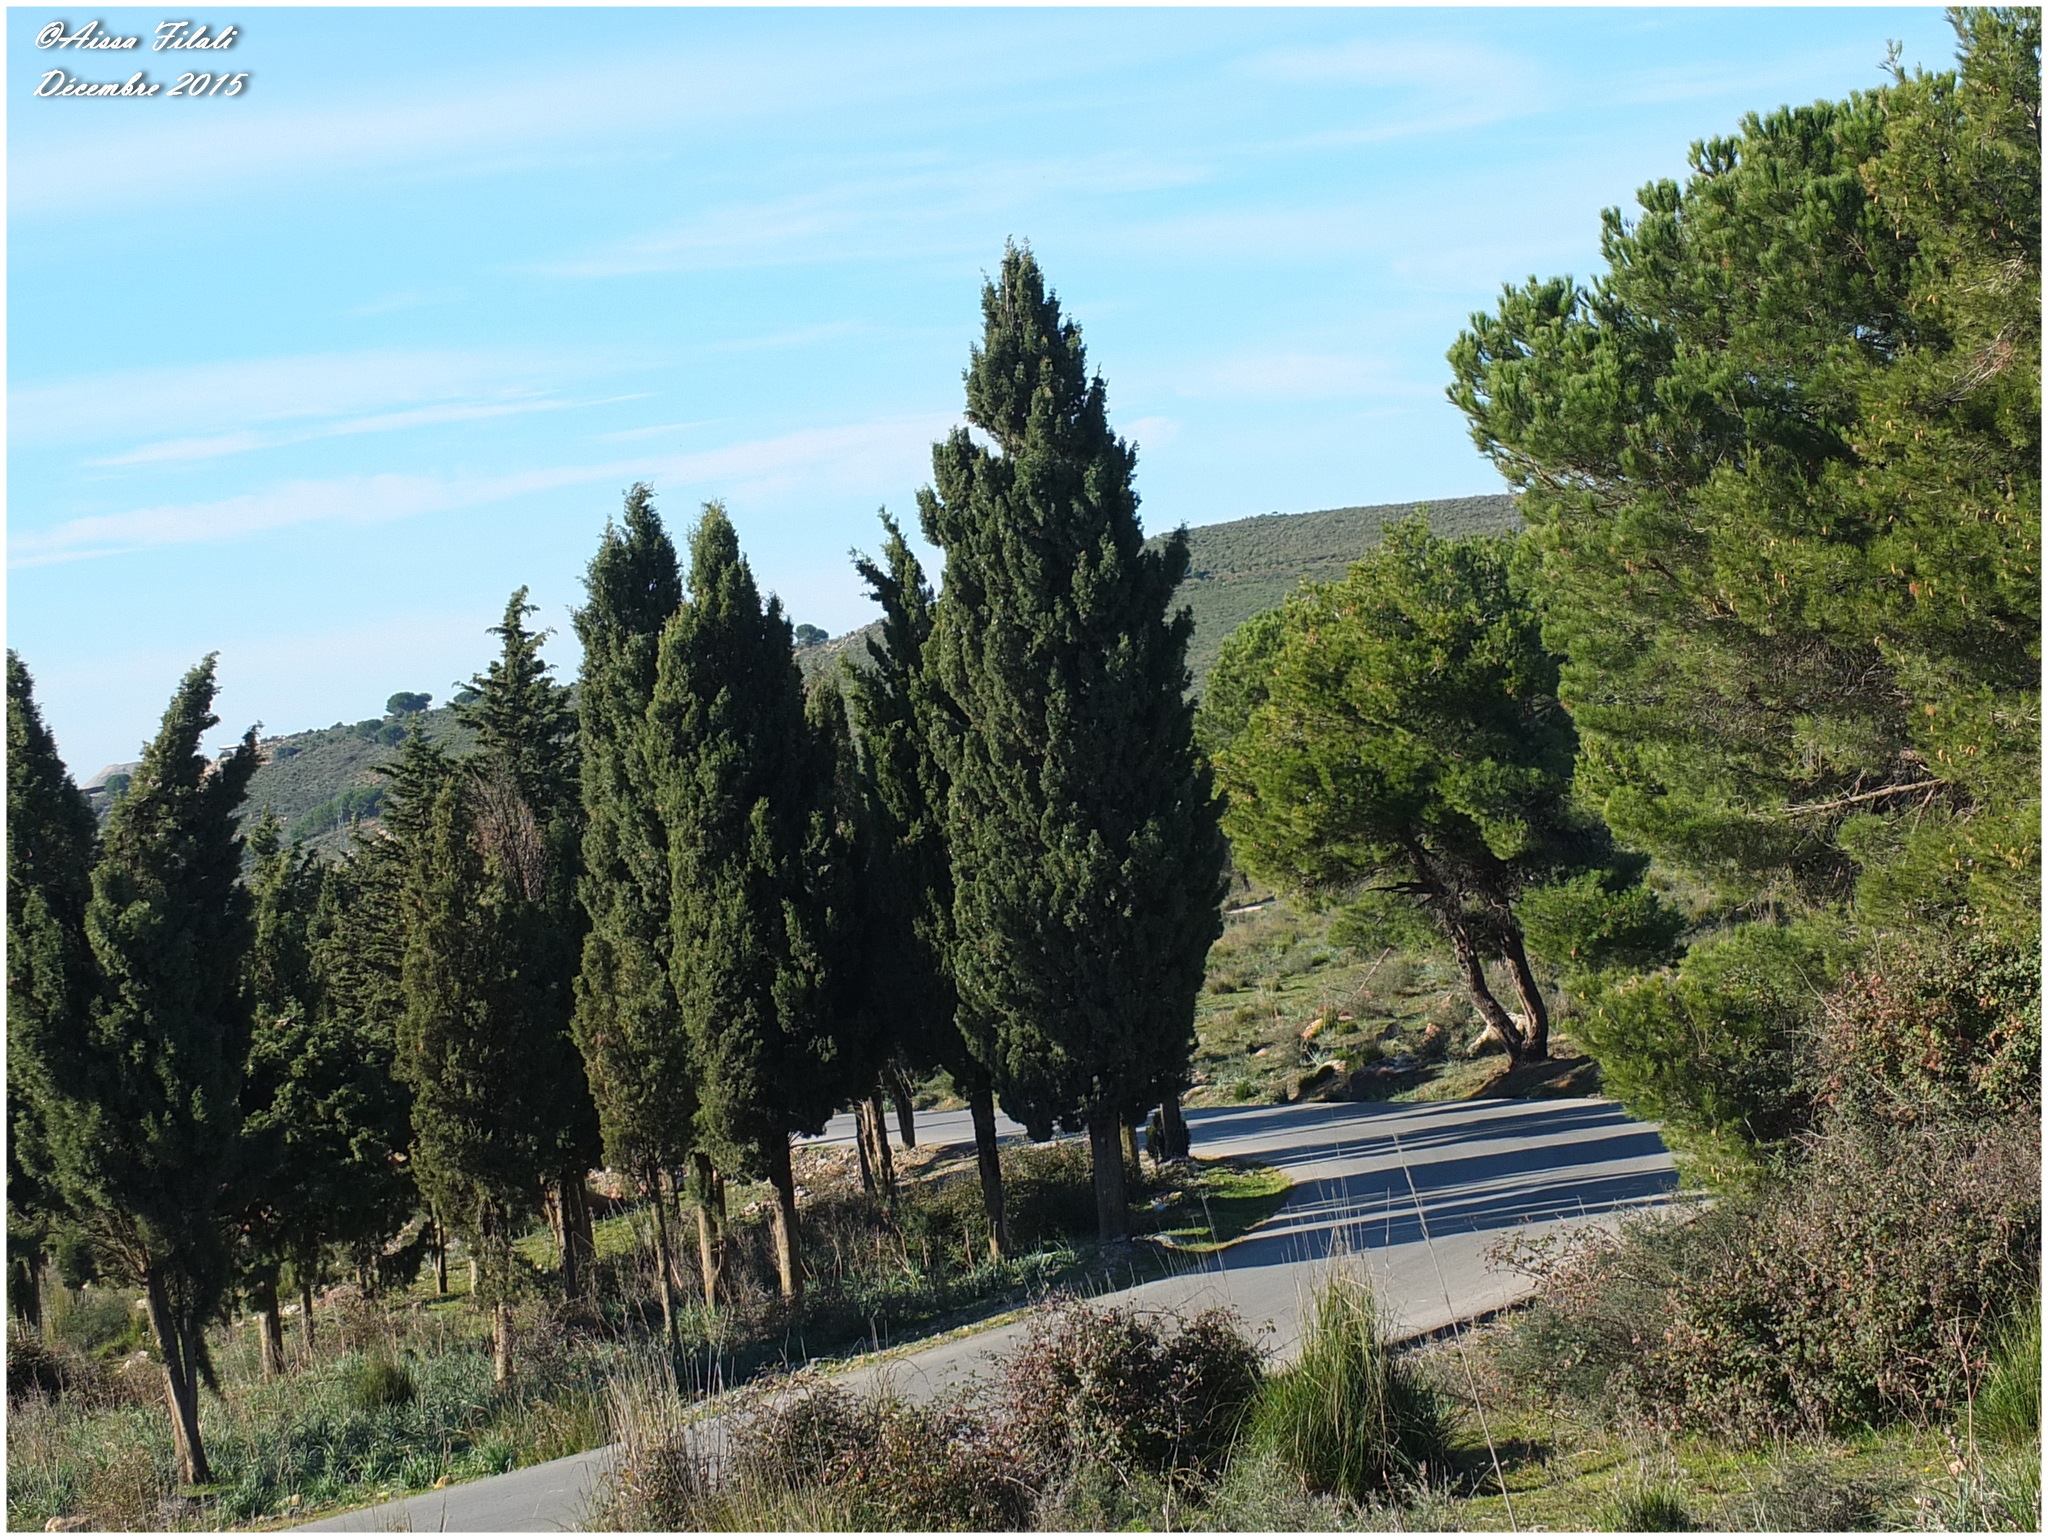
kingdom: Plantae
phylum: Tracheophyta
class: Pinopsida
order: Pinales
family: Cupressaceae
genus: Cupressus
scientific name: Cupressus sempervirens
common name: Italian cypress
